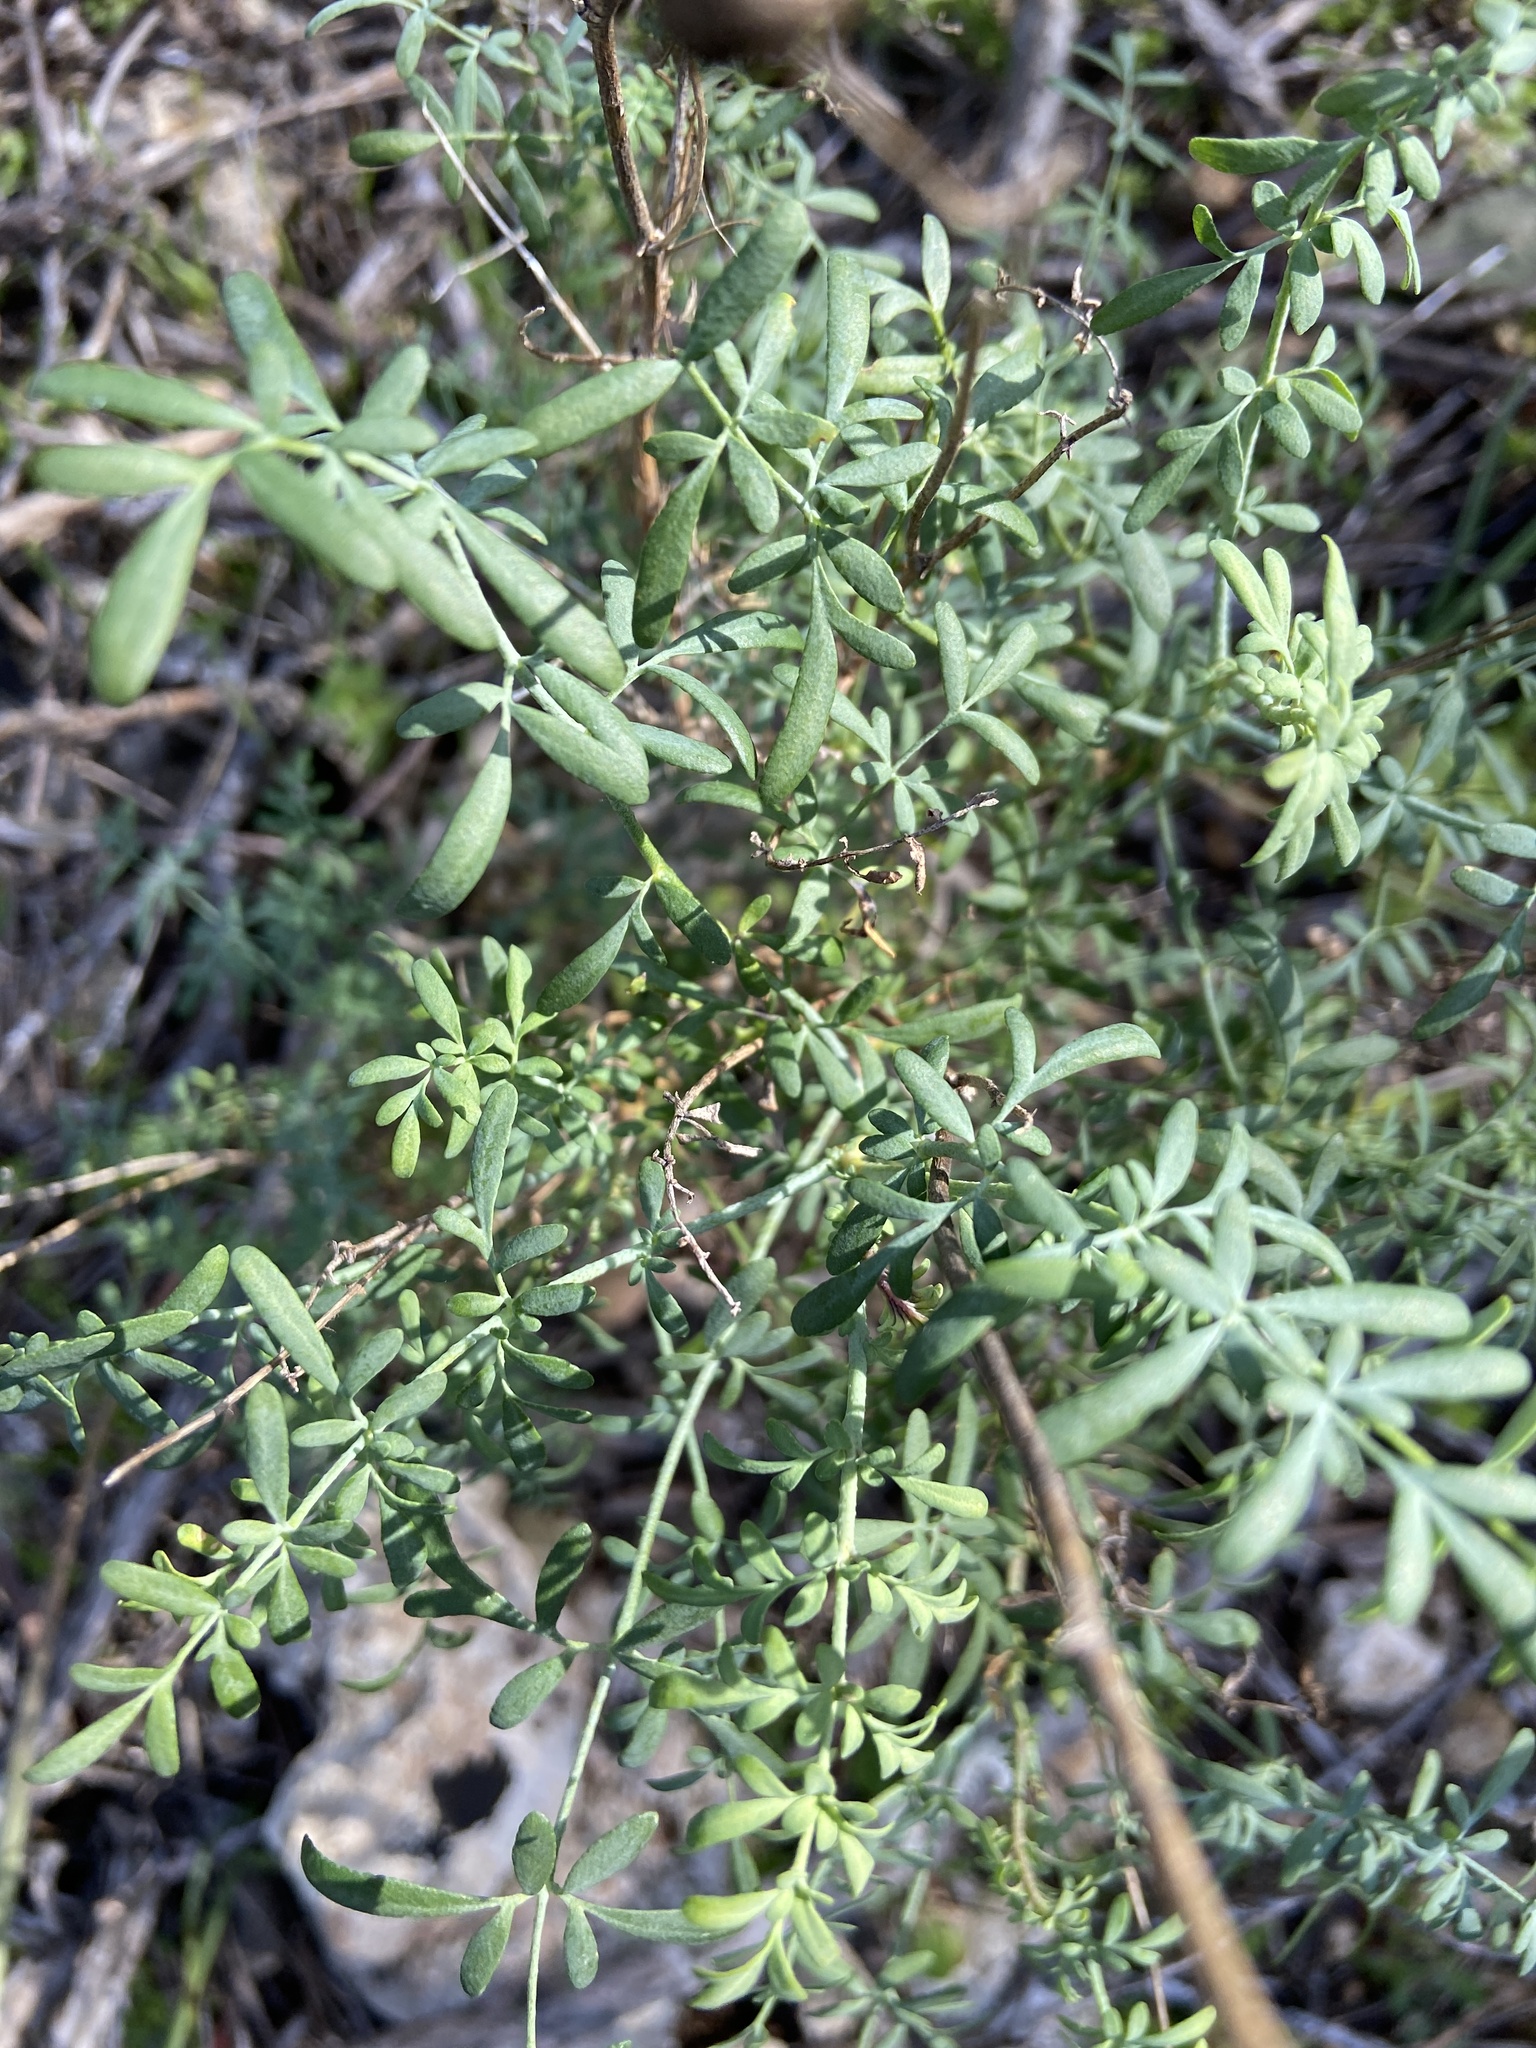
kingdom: Plantae
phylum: Tracheophyta
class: Magnoliopsida
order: Sapindales
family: Rutaceae
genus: Ruta
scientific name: Ruta angustifolia
